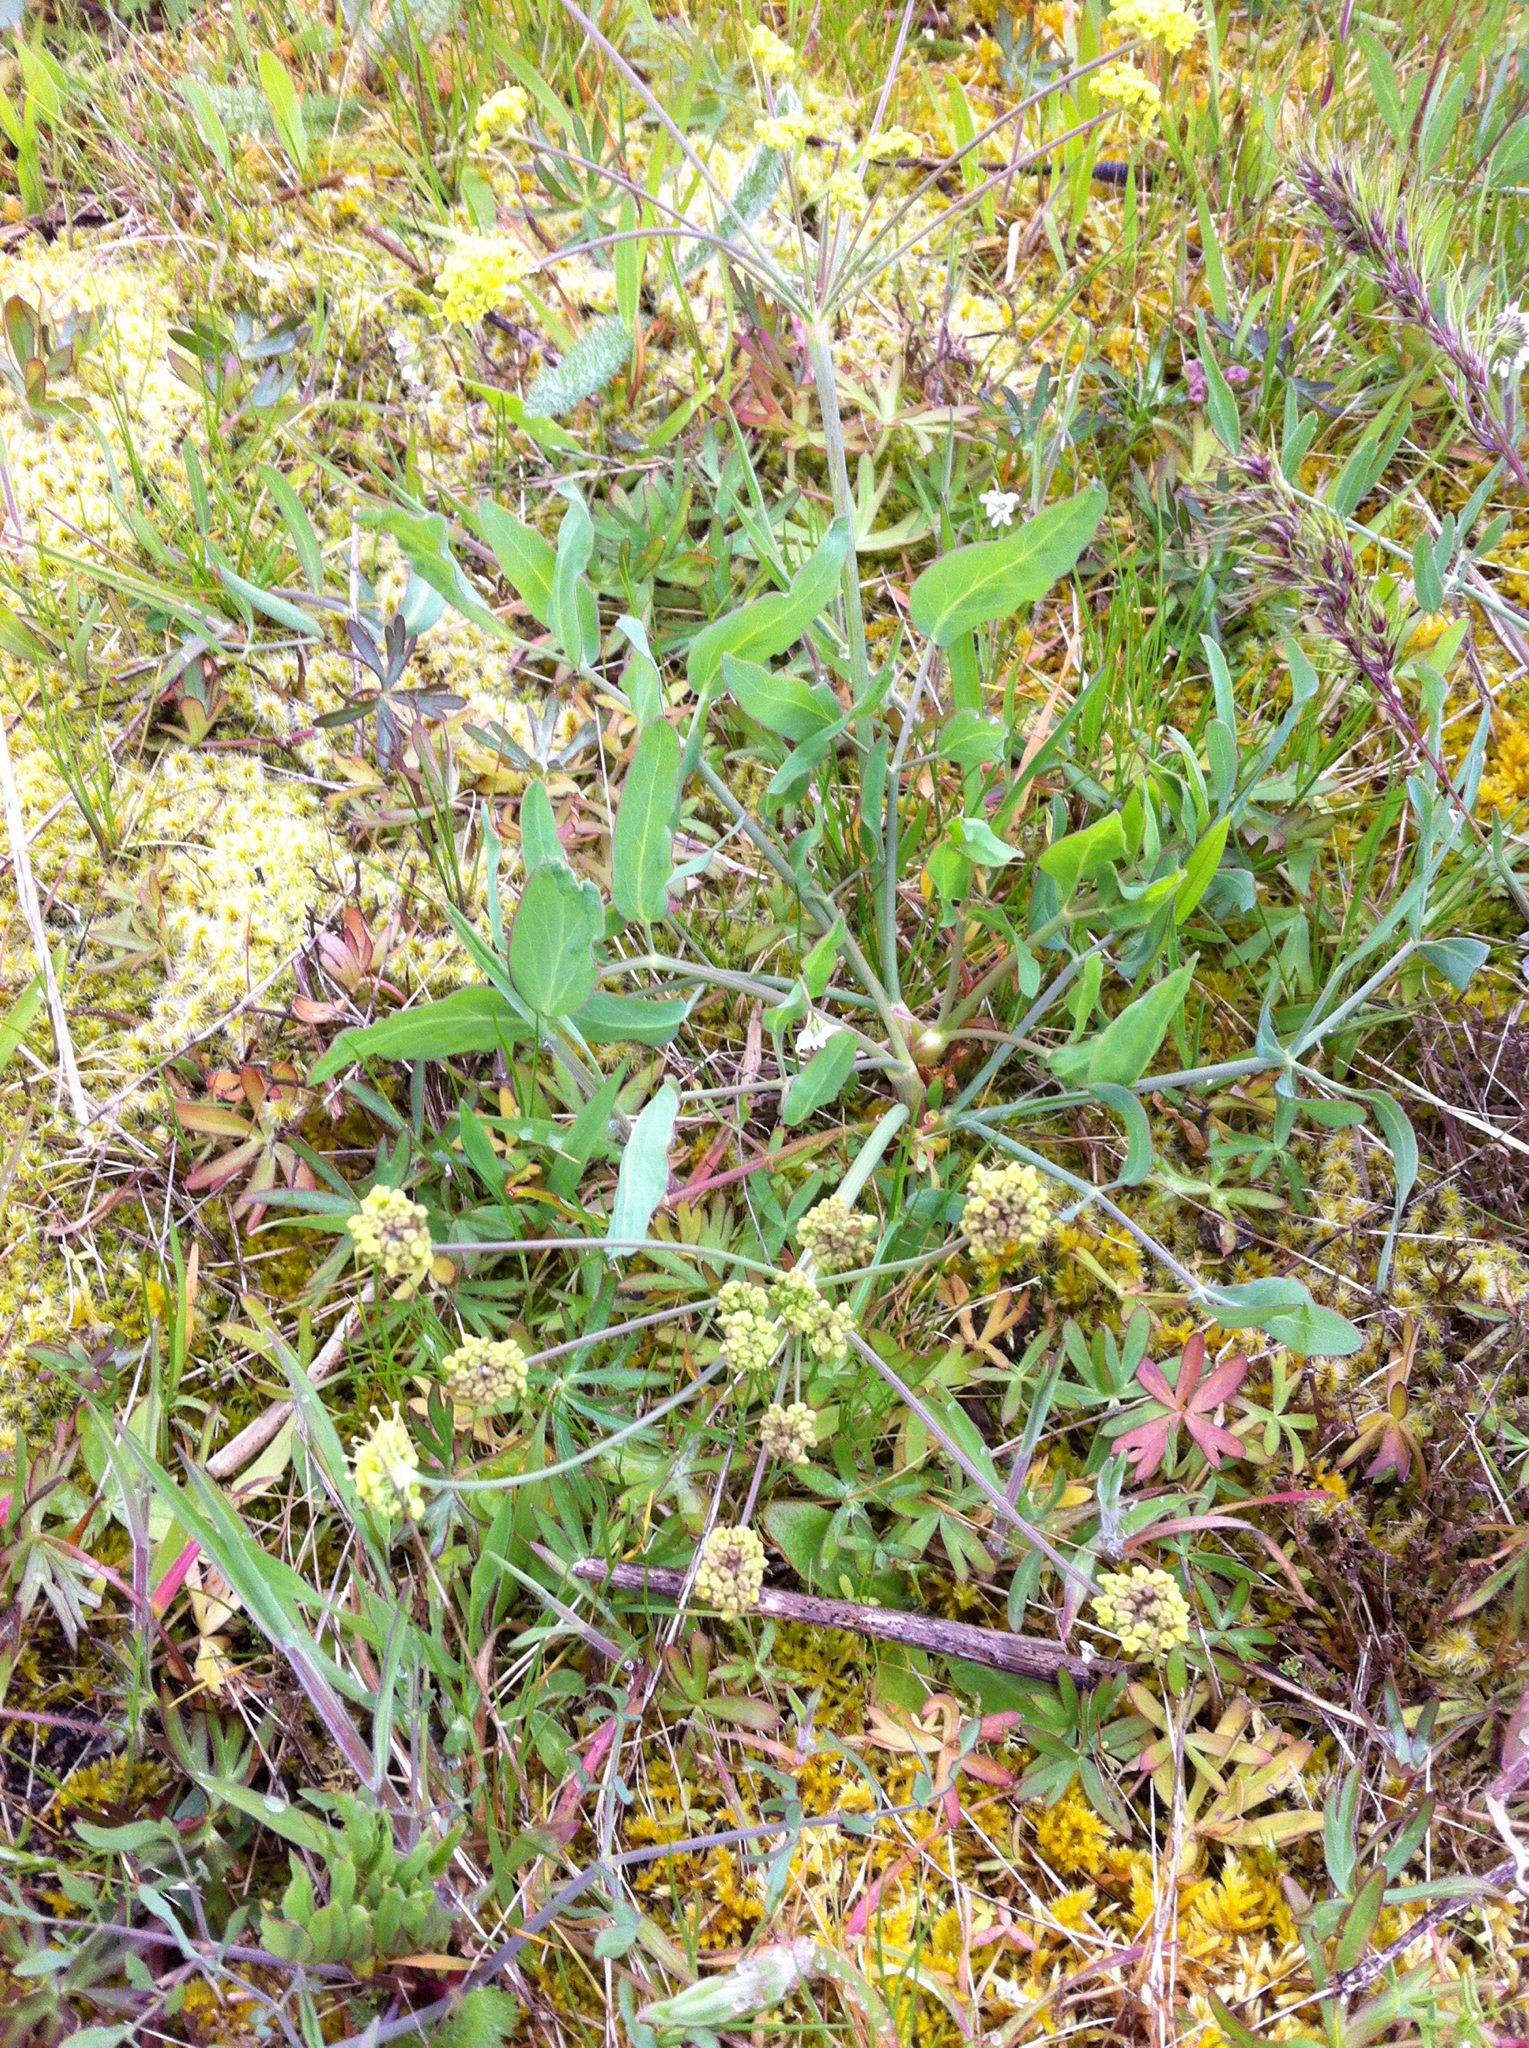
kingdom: Plantae
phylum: Tracheophyta
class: Magnoliopsida
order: Apiales
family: Apiaceae
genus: Lomatium
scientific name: Lomatium nudicaule
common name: Pestle lomatium
